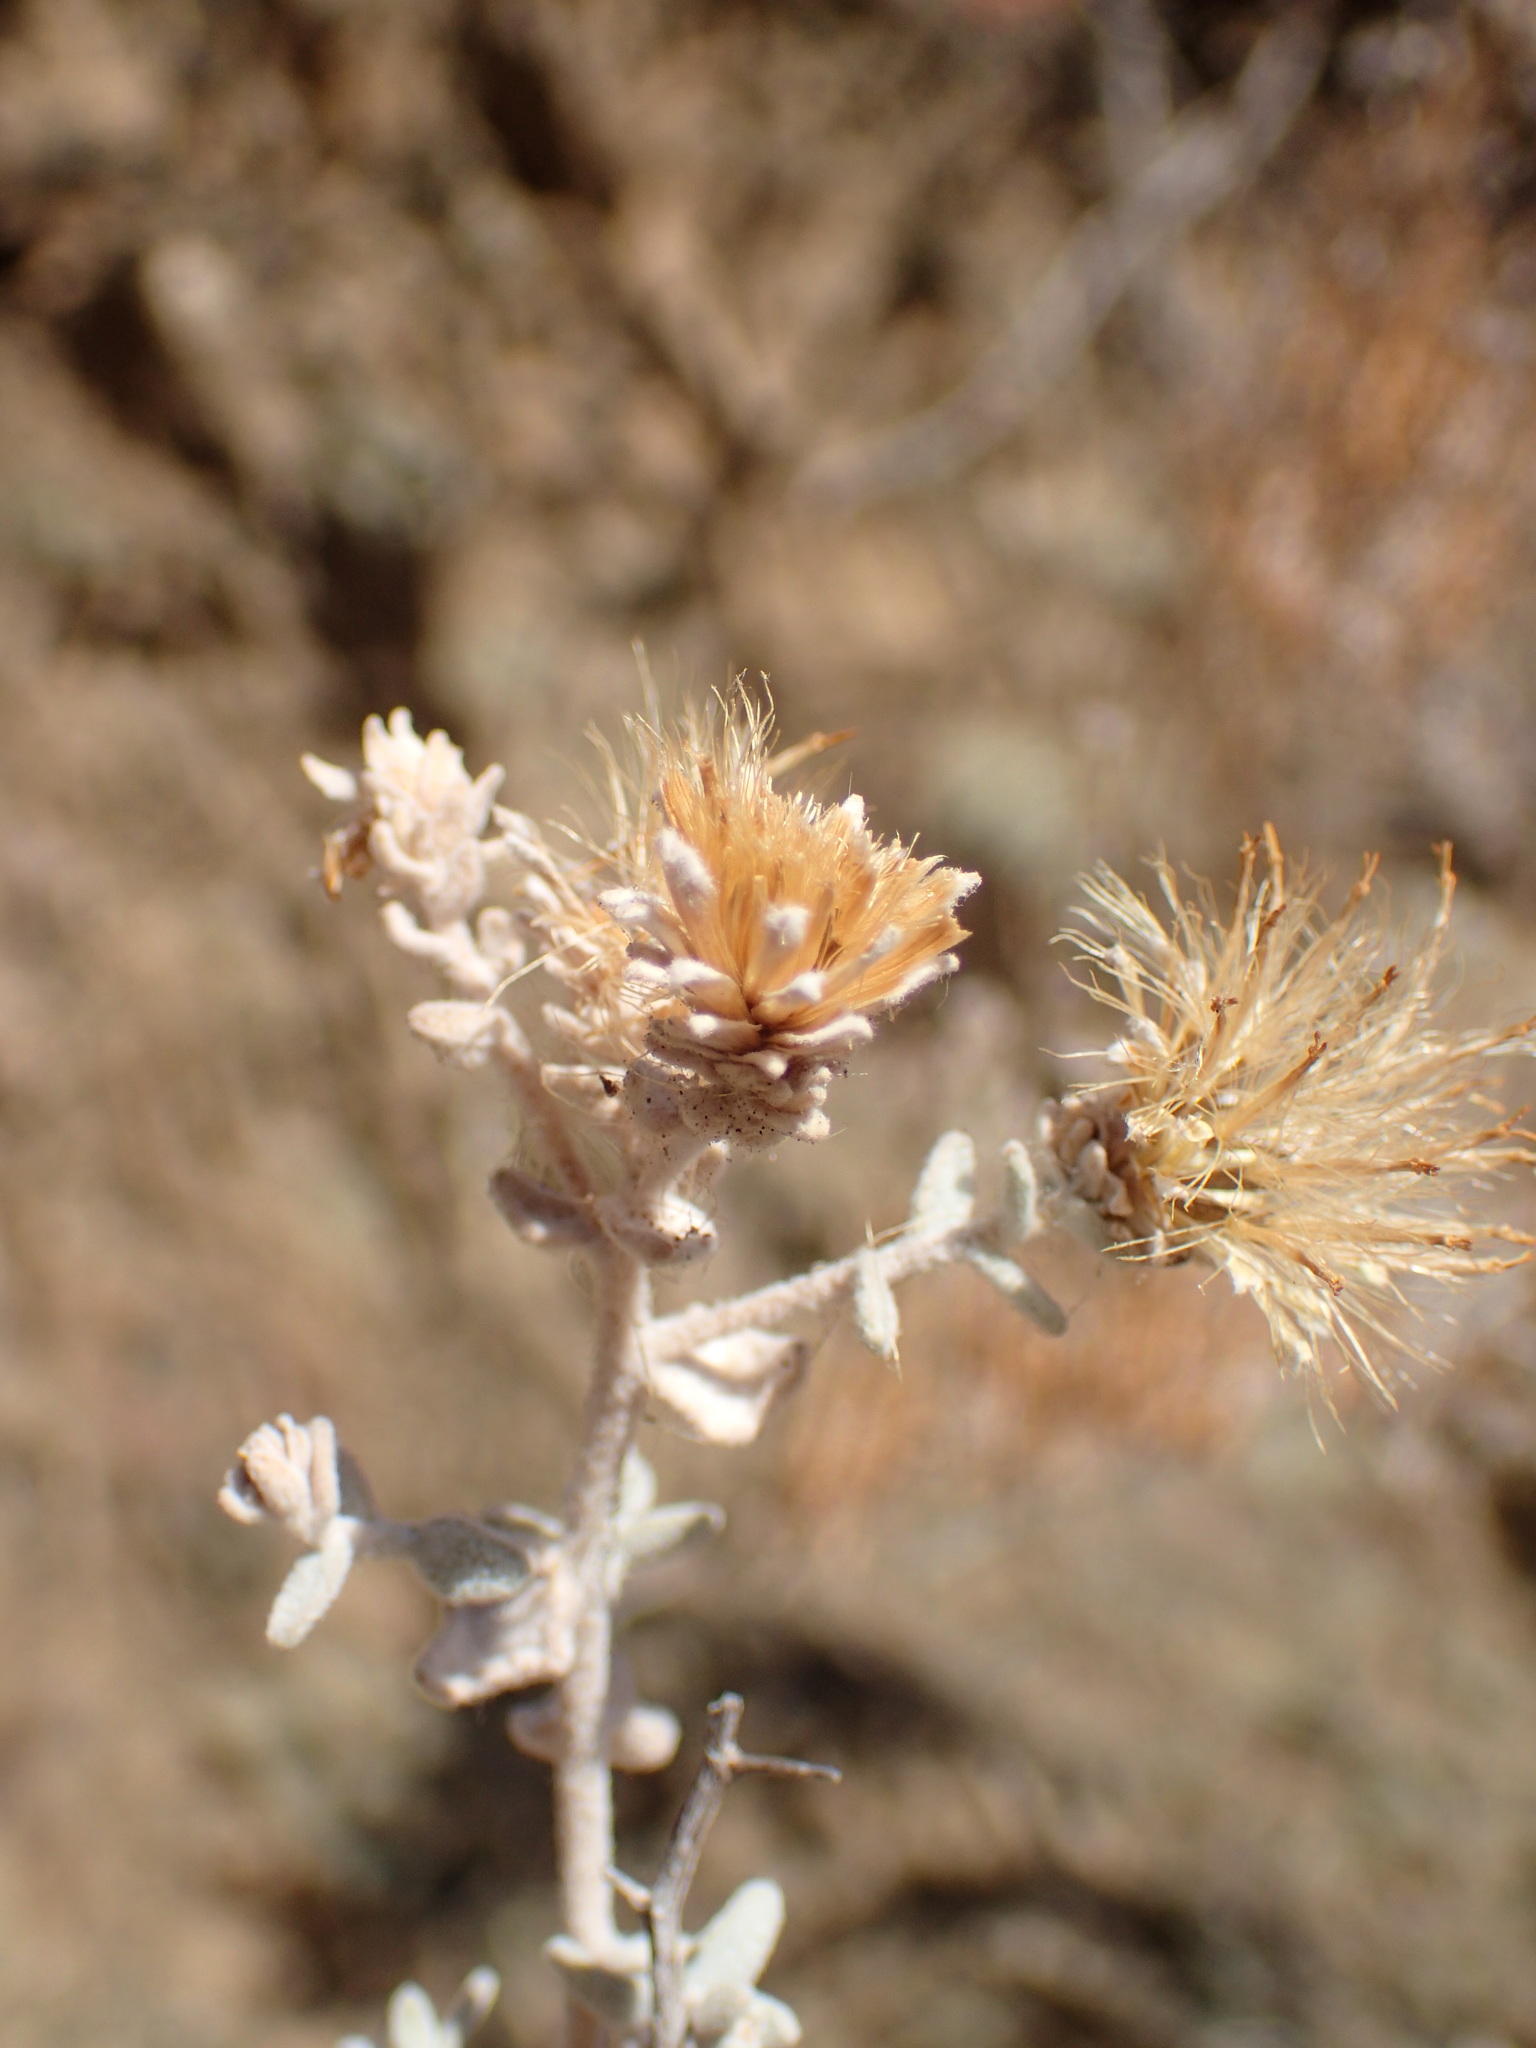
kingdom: Plantae
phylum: Tracheophyta
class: Magnoliopsida
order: Asterales
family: Asteraceae
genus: Brickellia
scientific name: Brickellia nevinii
